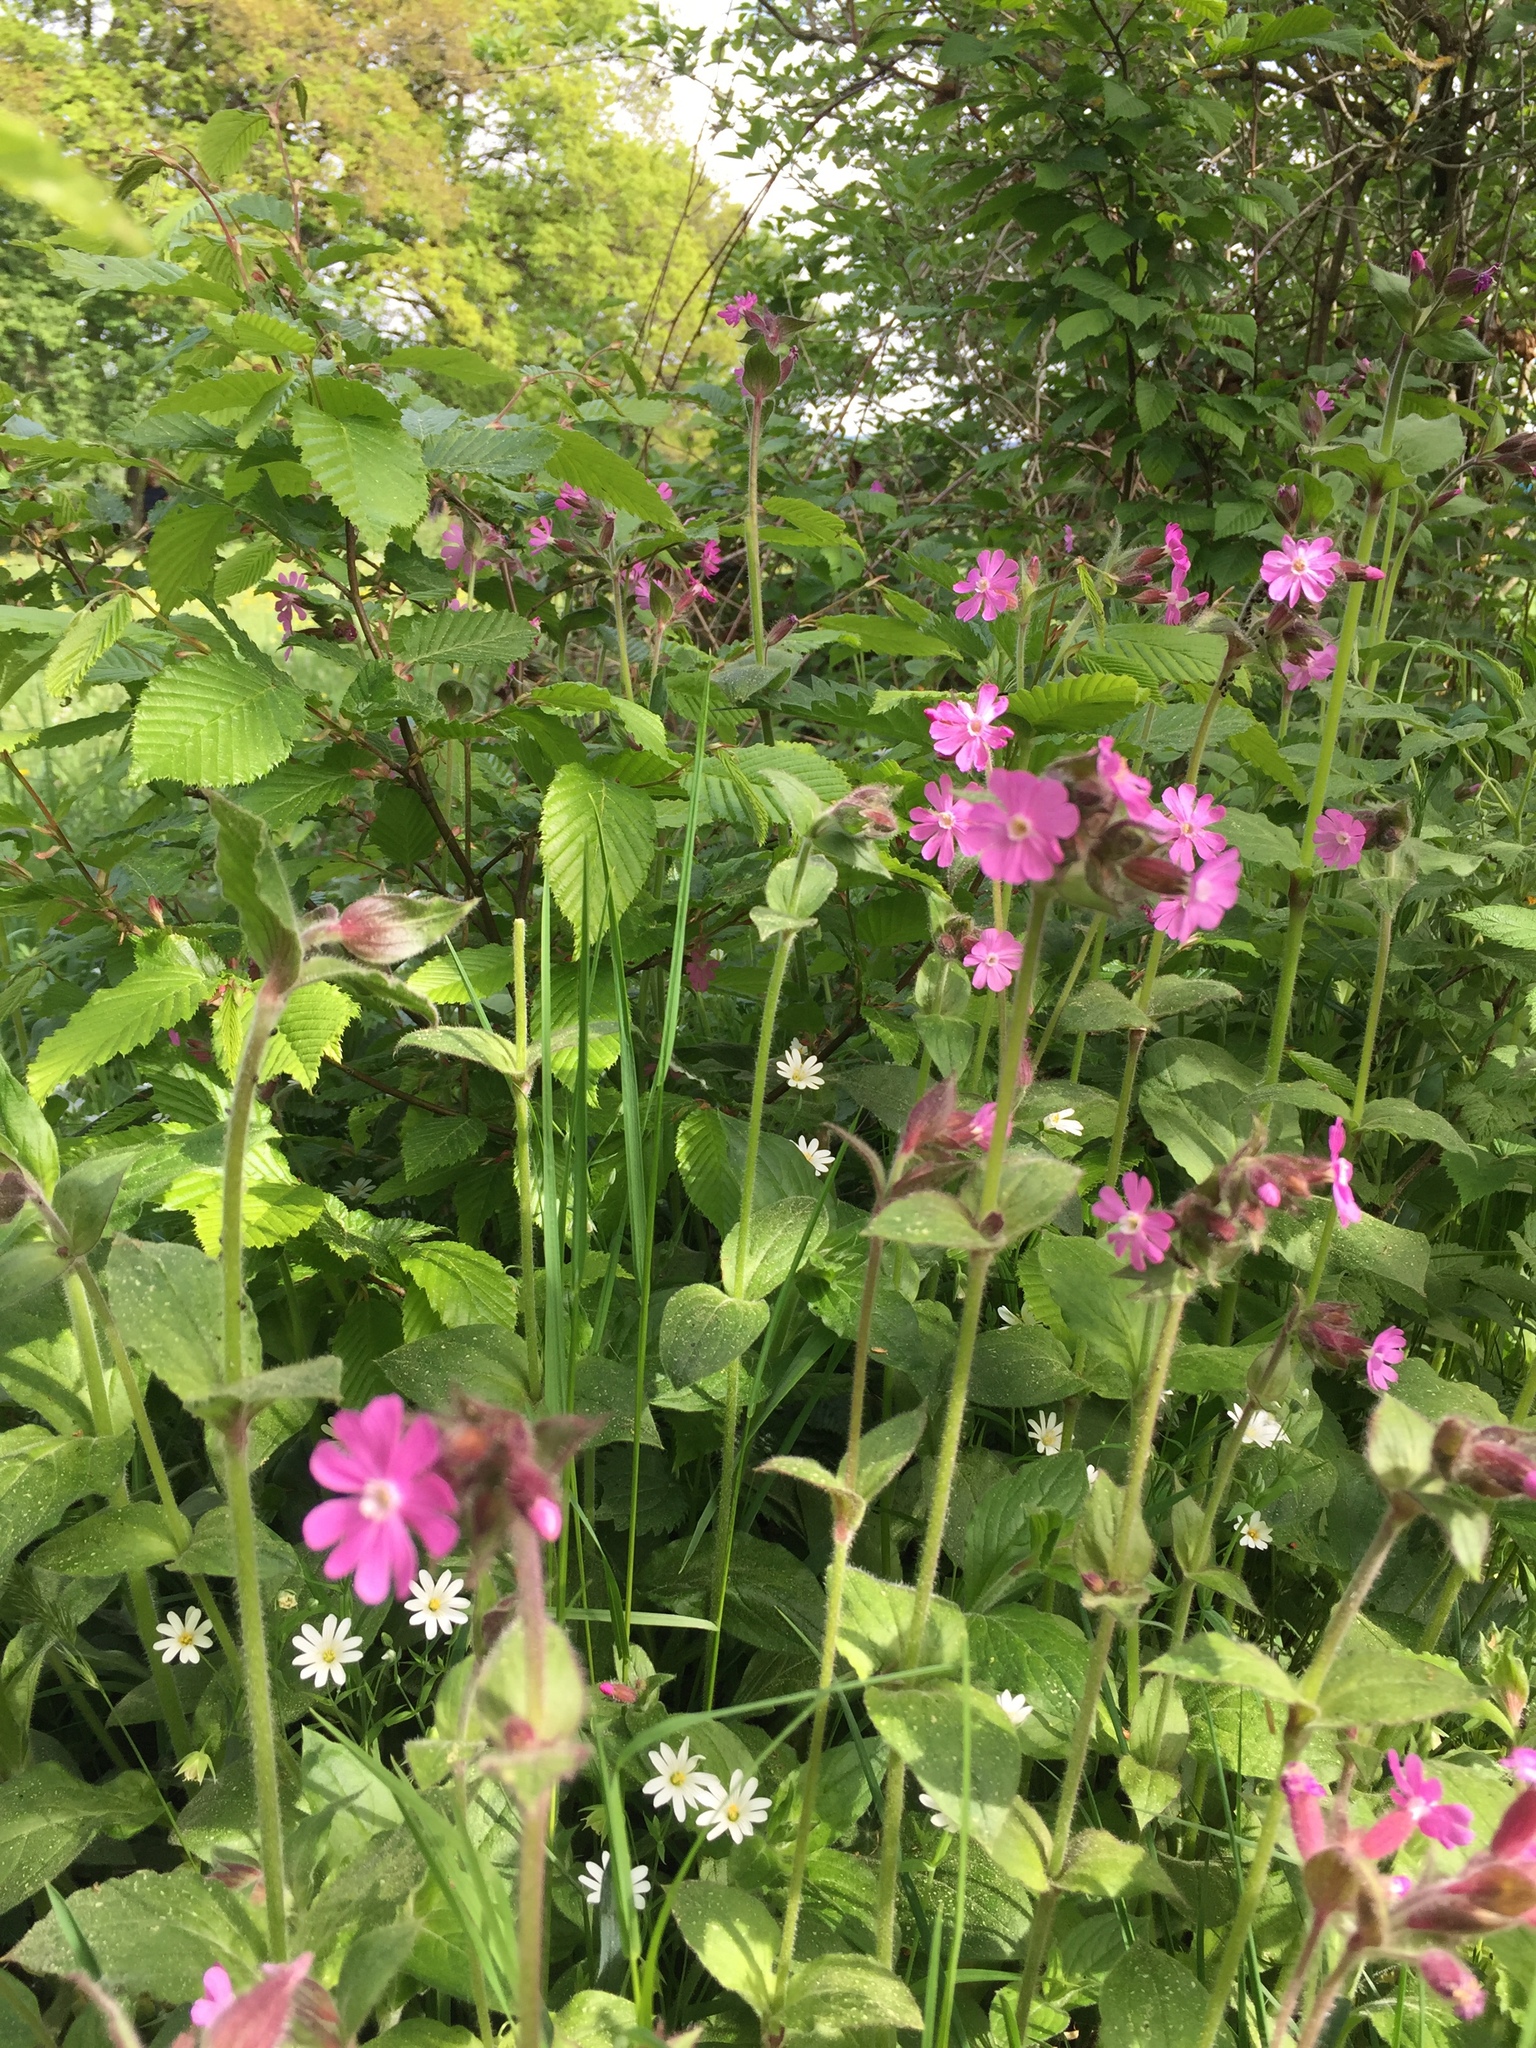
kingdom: Plantae
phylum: Tracheophyta
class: Magnoliopsida
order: Caryophyllales
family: Caryophyllaceae
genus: Silene
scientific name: Silene dioica
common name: Red campion
